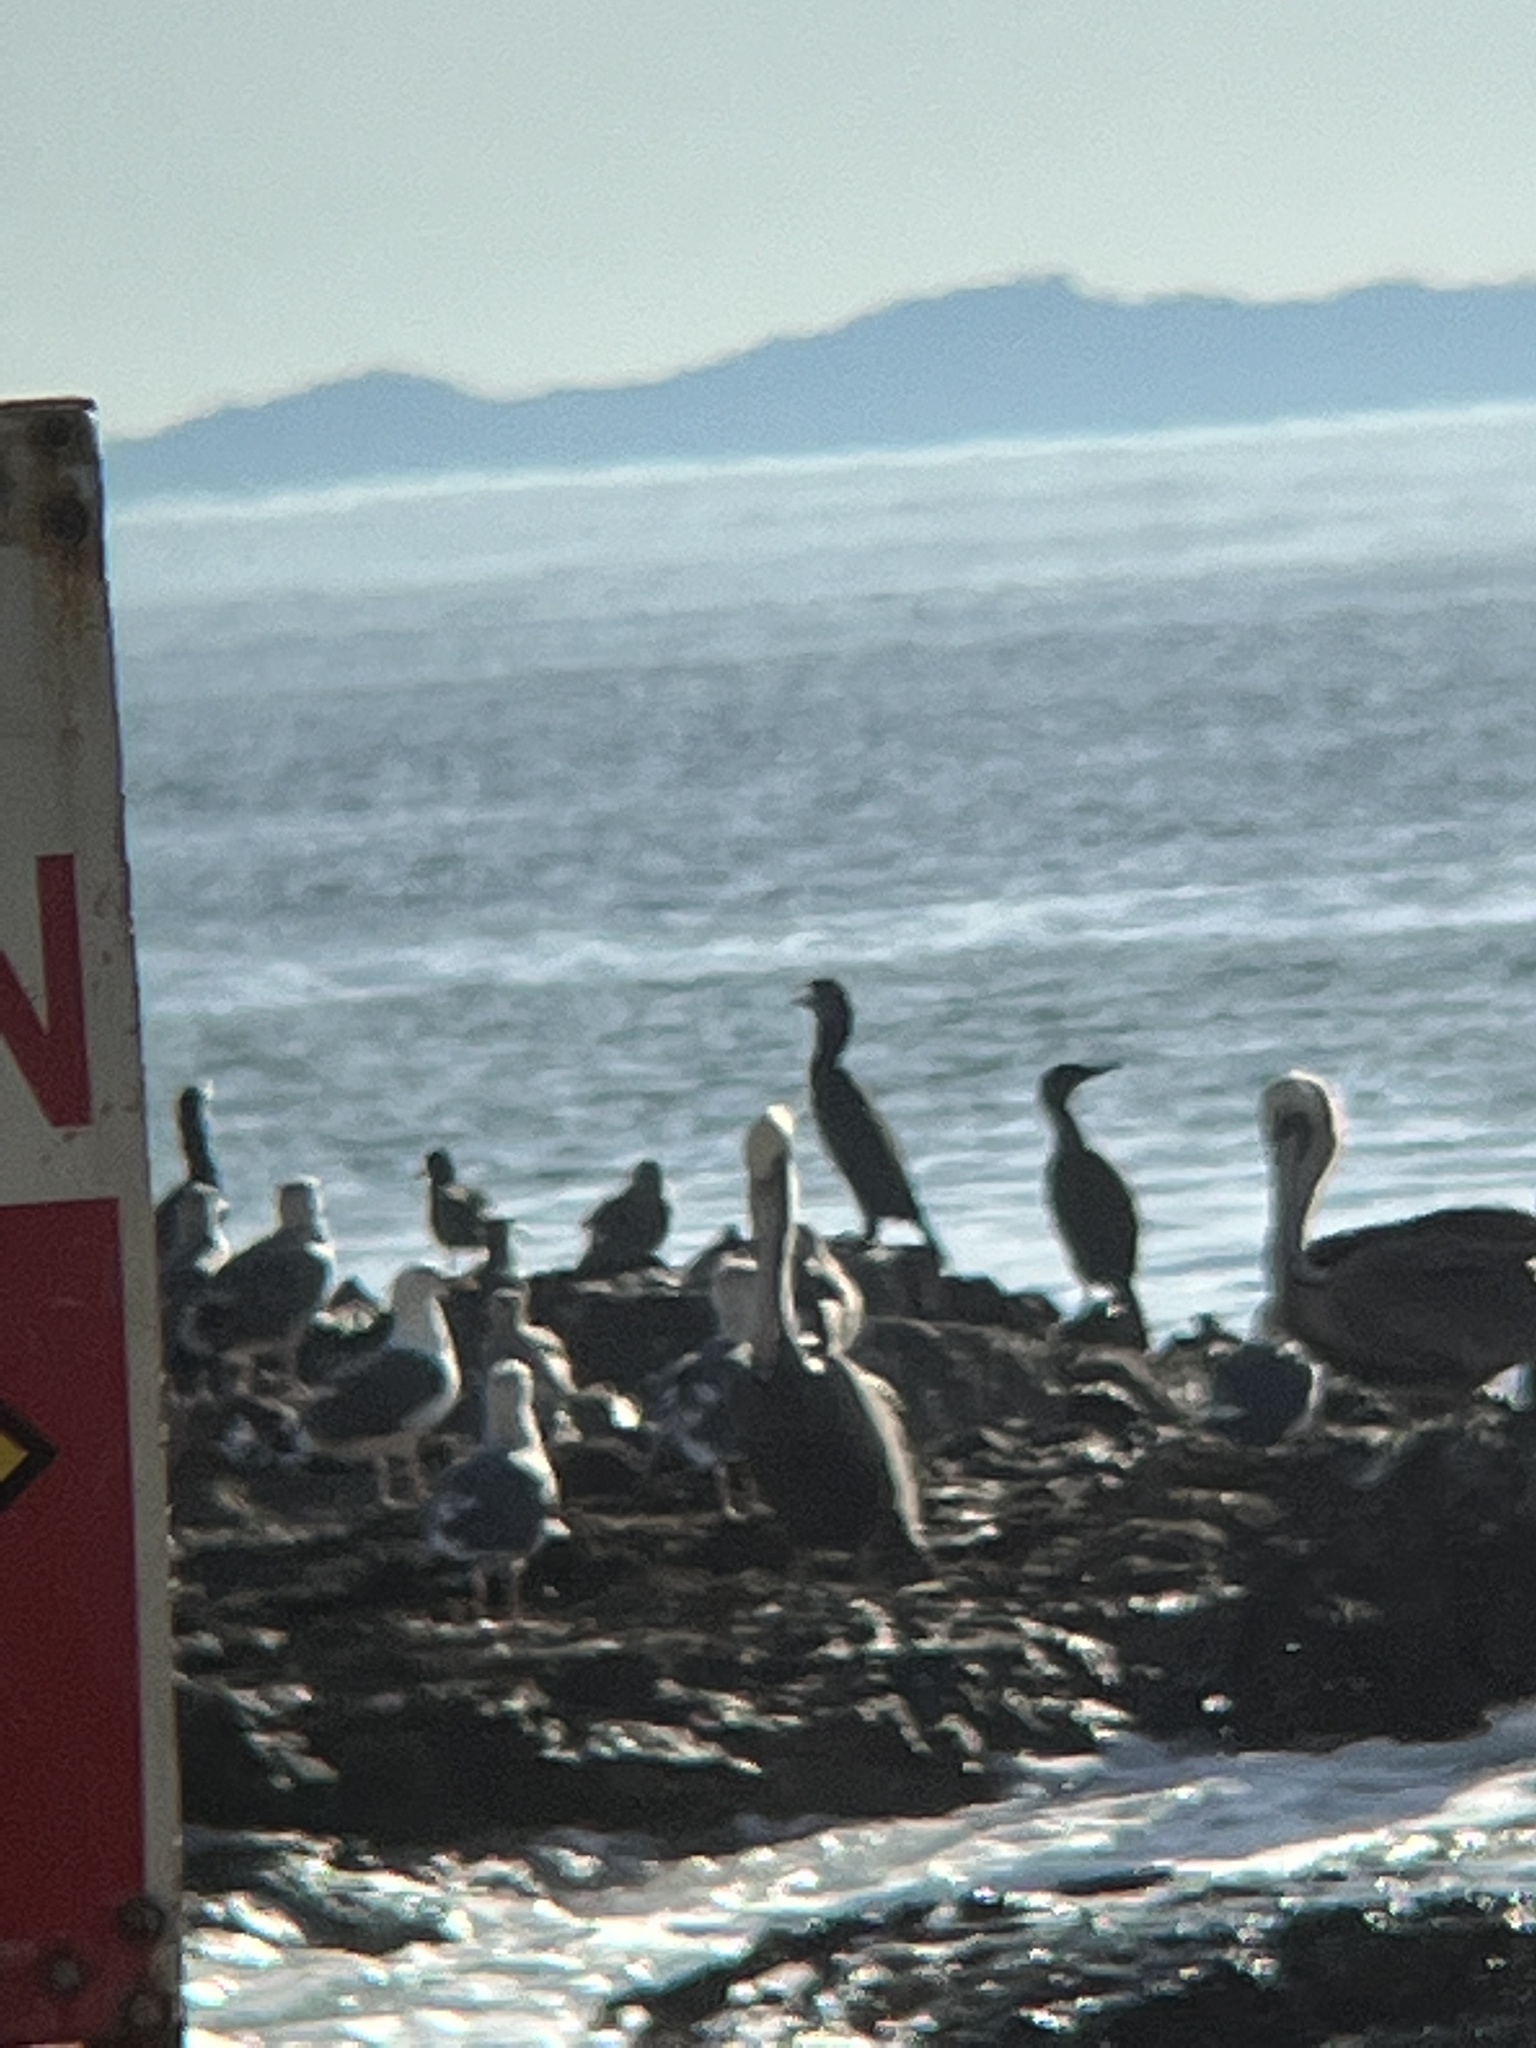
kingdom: Animalia
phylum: Chordata
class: Aves
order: Suliformes
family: Phalacrocoracidae
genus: Urile
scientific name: Urile penicillatus
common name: Brandt's cormorant
